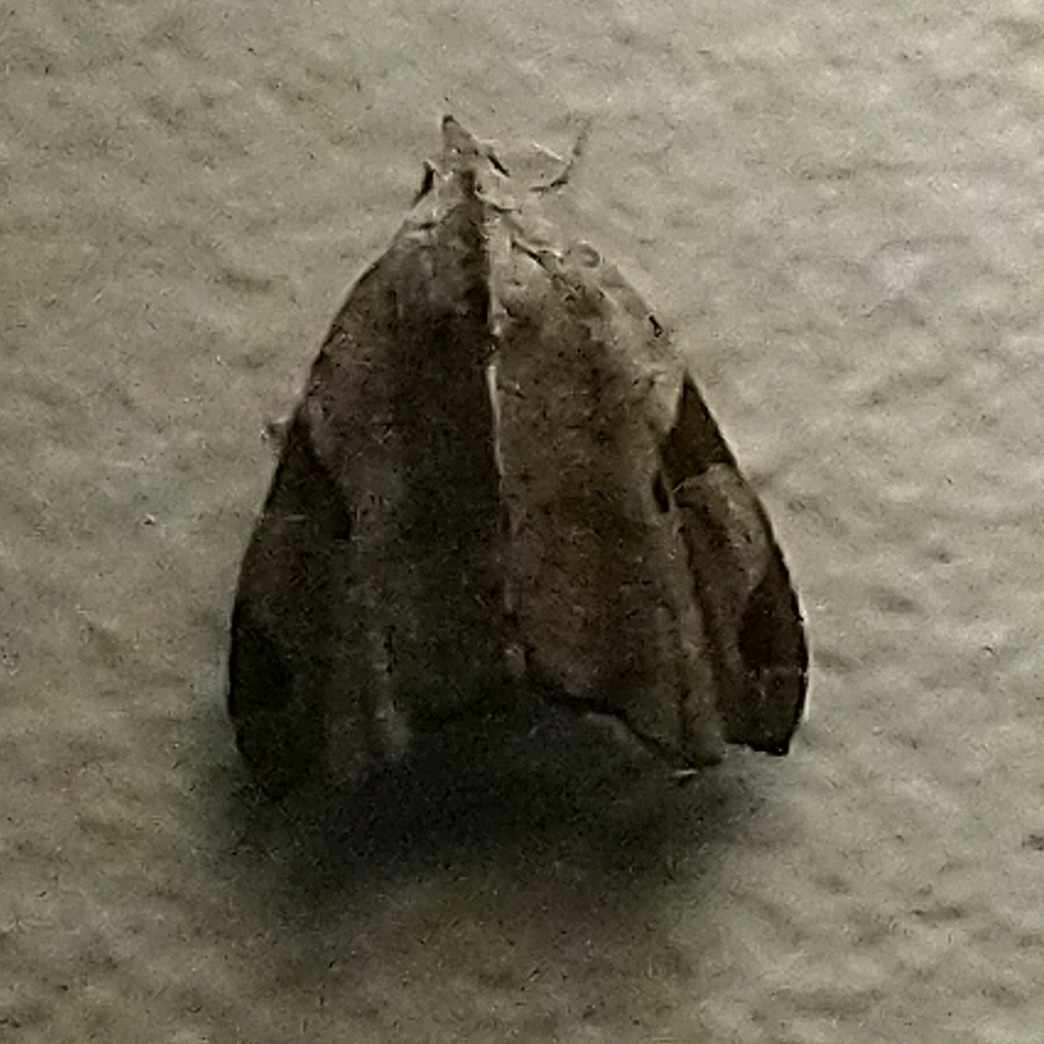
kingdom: Animalia
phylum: Arthropoda
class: Insecta
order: Lepidoptera
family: Noctuidae
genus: Androlymnia
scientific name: Androlymnia torsivena
